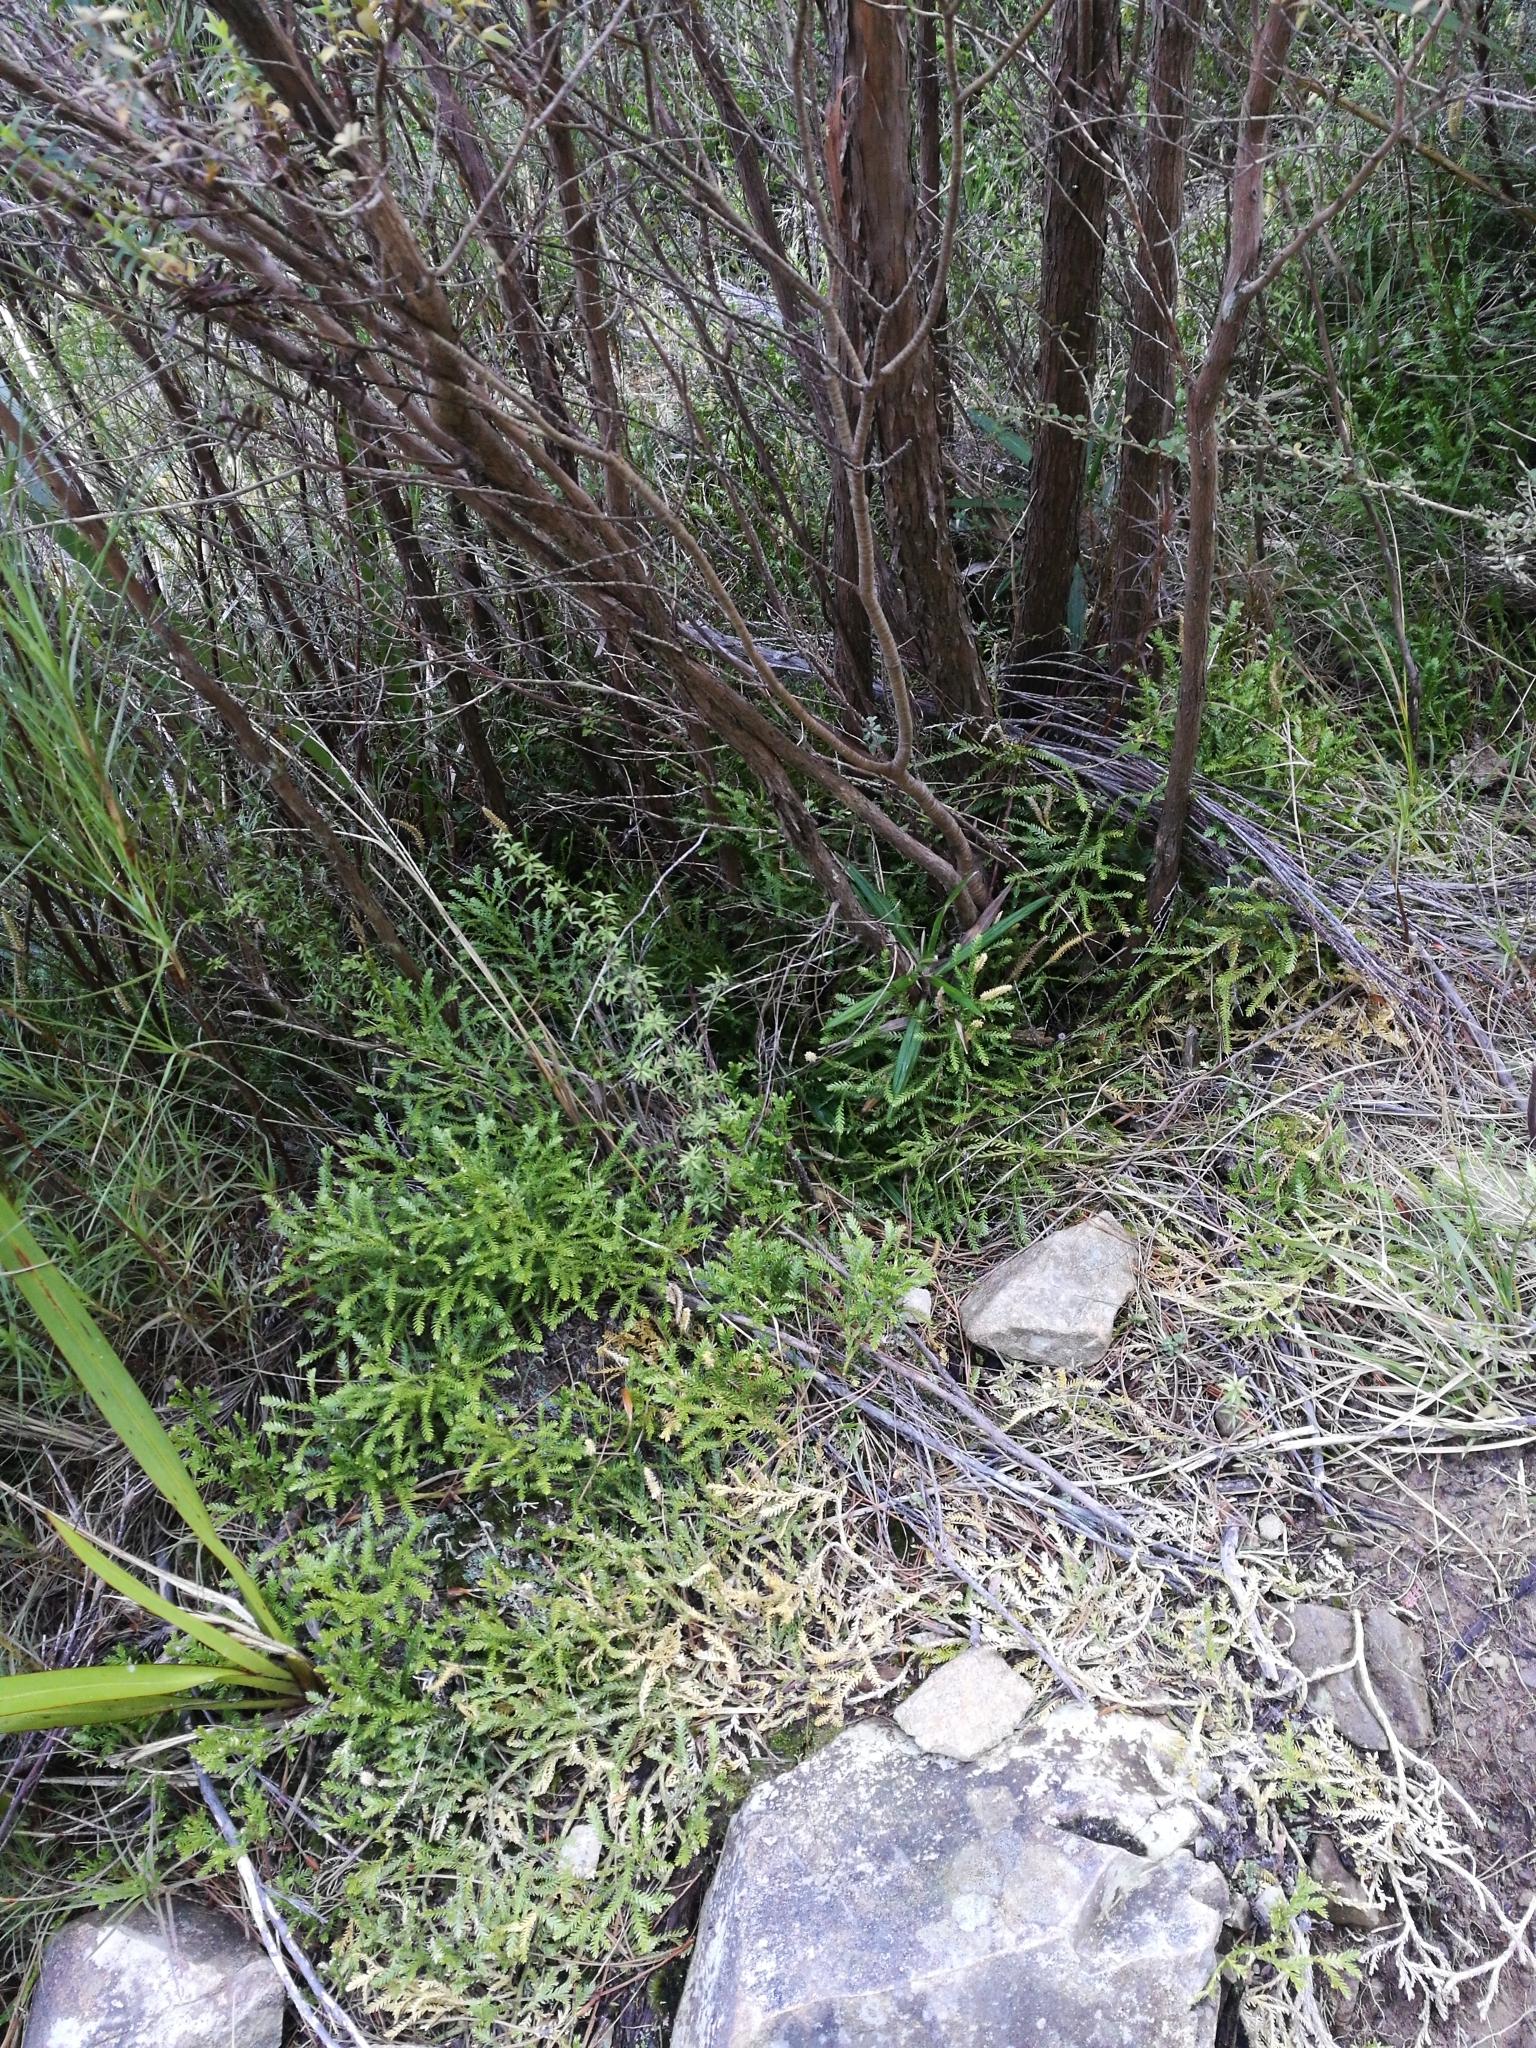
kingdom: Plantae
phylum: Tracheophyta
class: Lycopodiopsida
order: Lycopodiales
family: Lycopodiaceae
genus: Diphasium
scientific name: Diphasium scariosum
